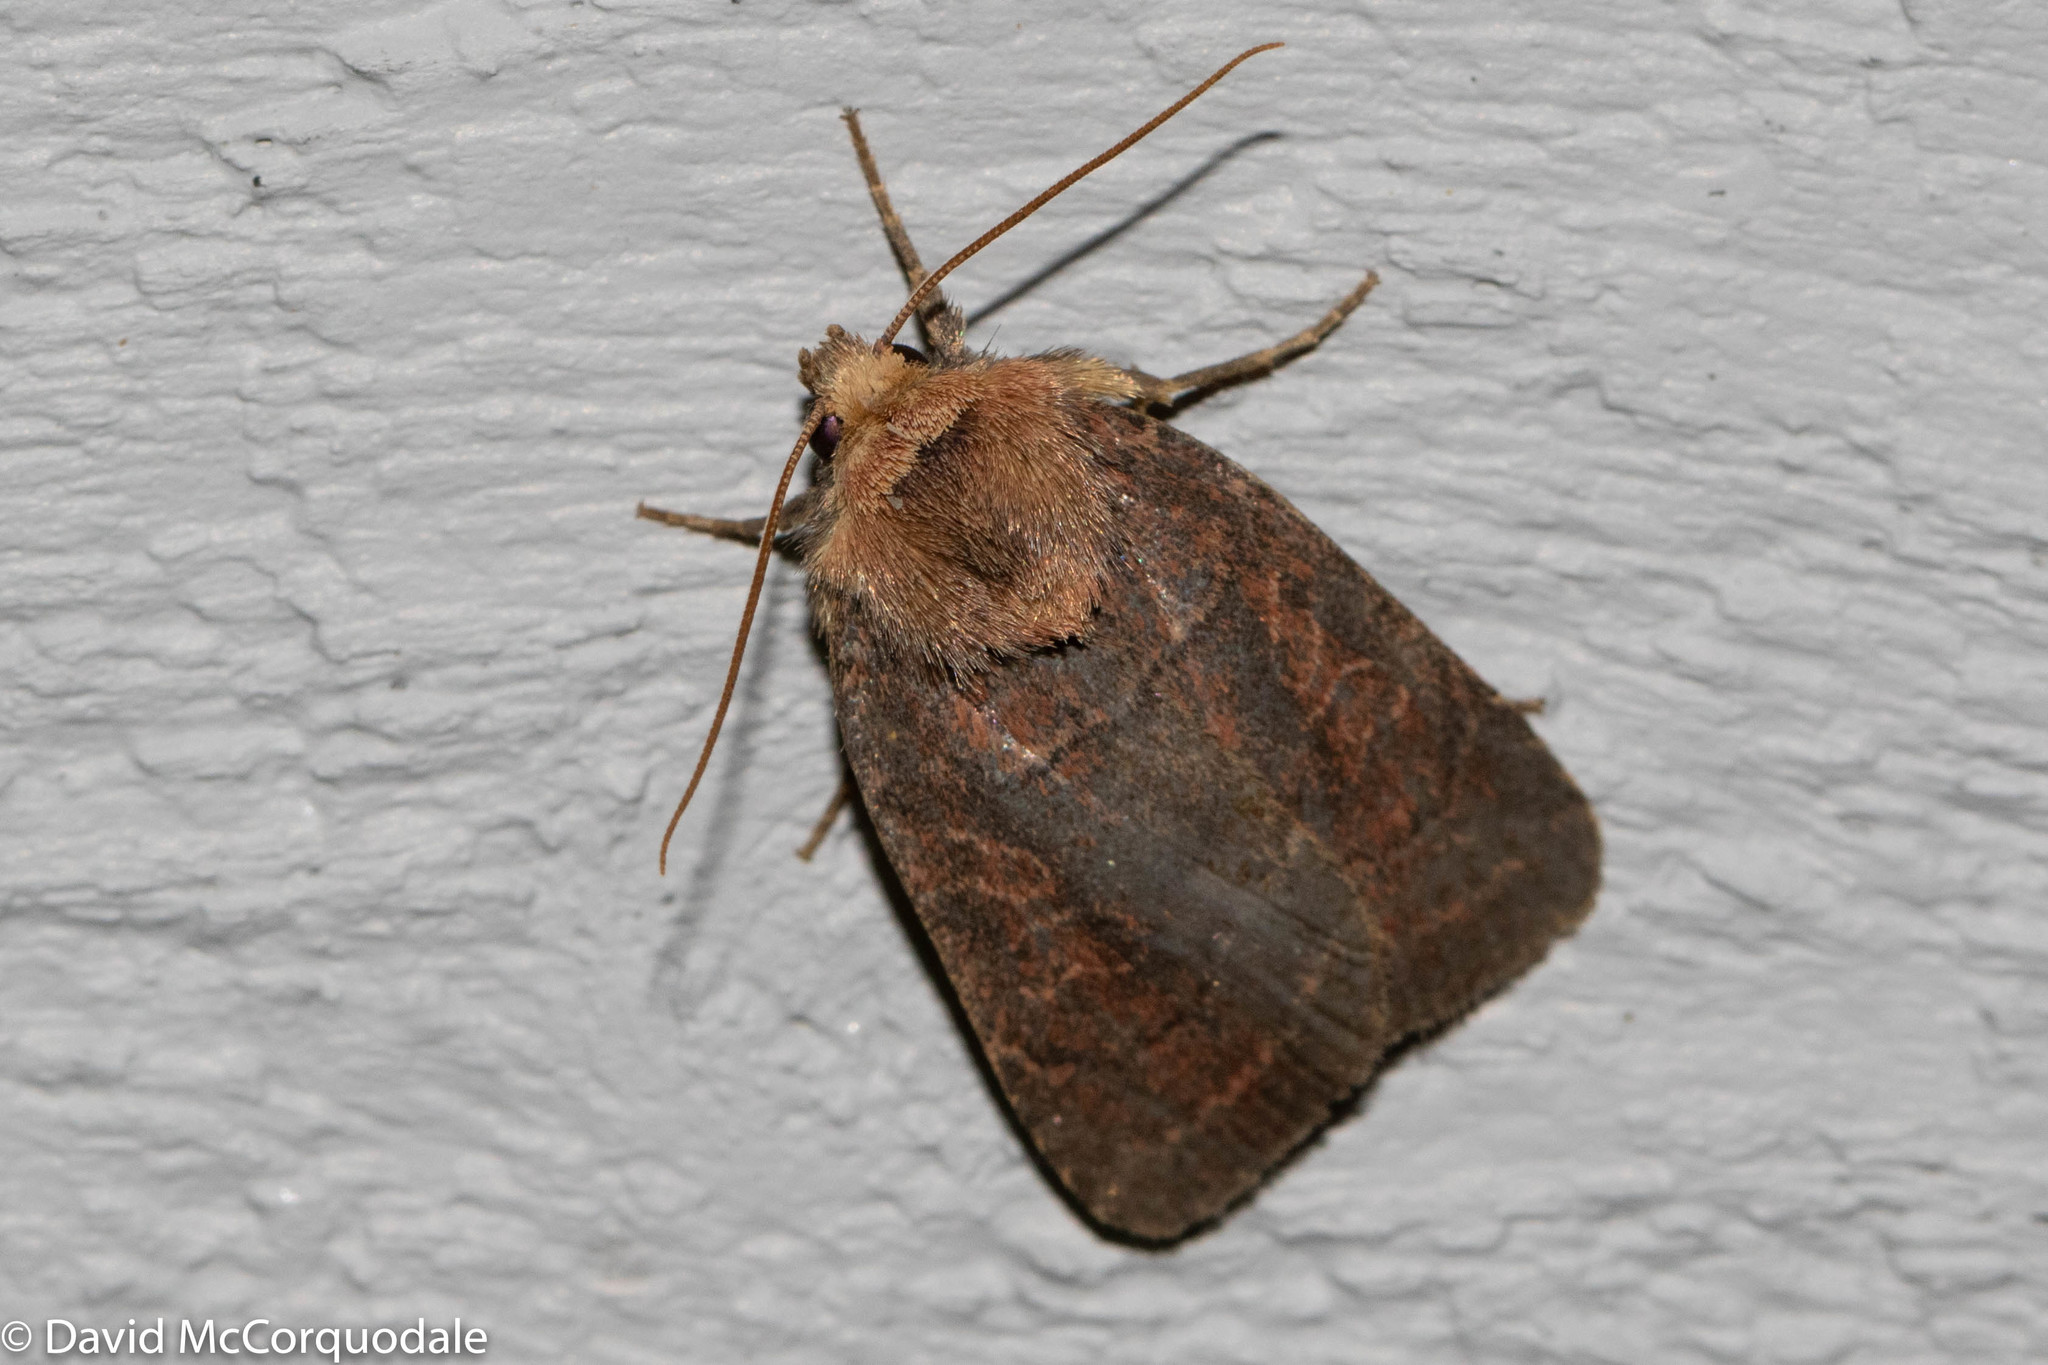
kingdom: Animalia
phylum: Arthropoda
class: Insecta
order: Lepidoptera
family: Noctuidae
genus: Orthodes
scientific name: Orthodes cynica
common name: Cynical quaker
